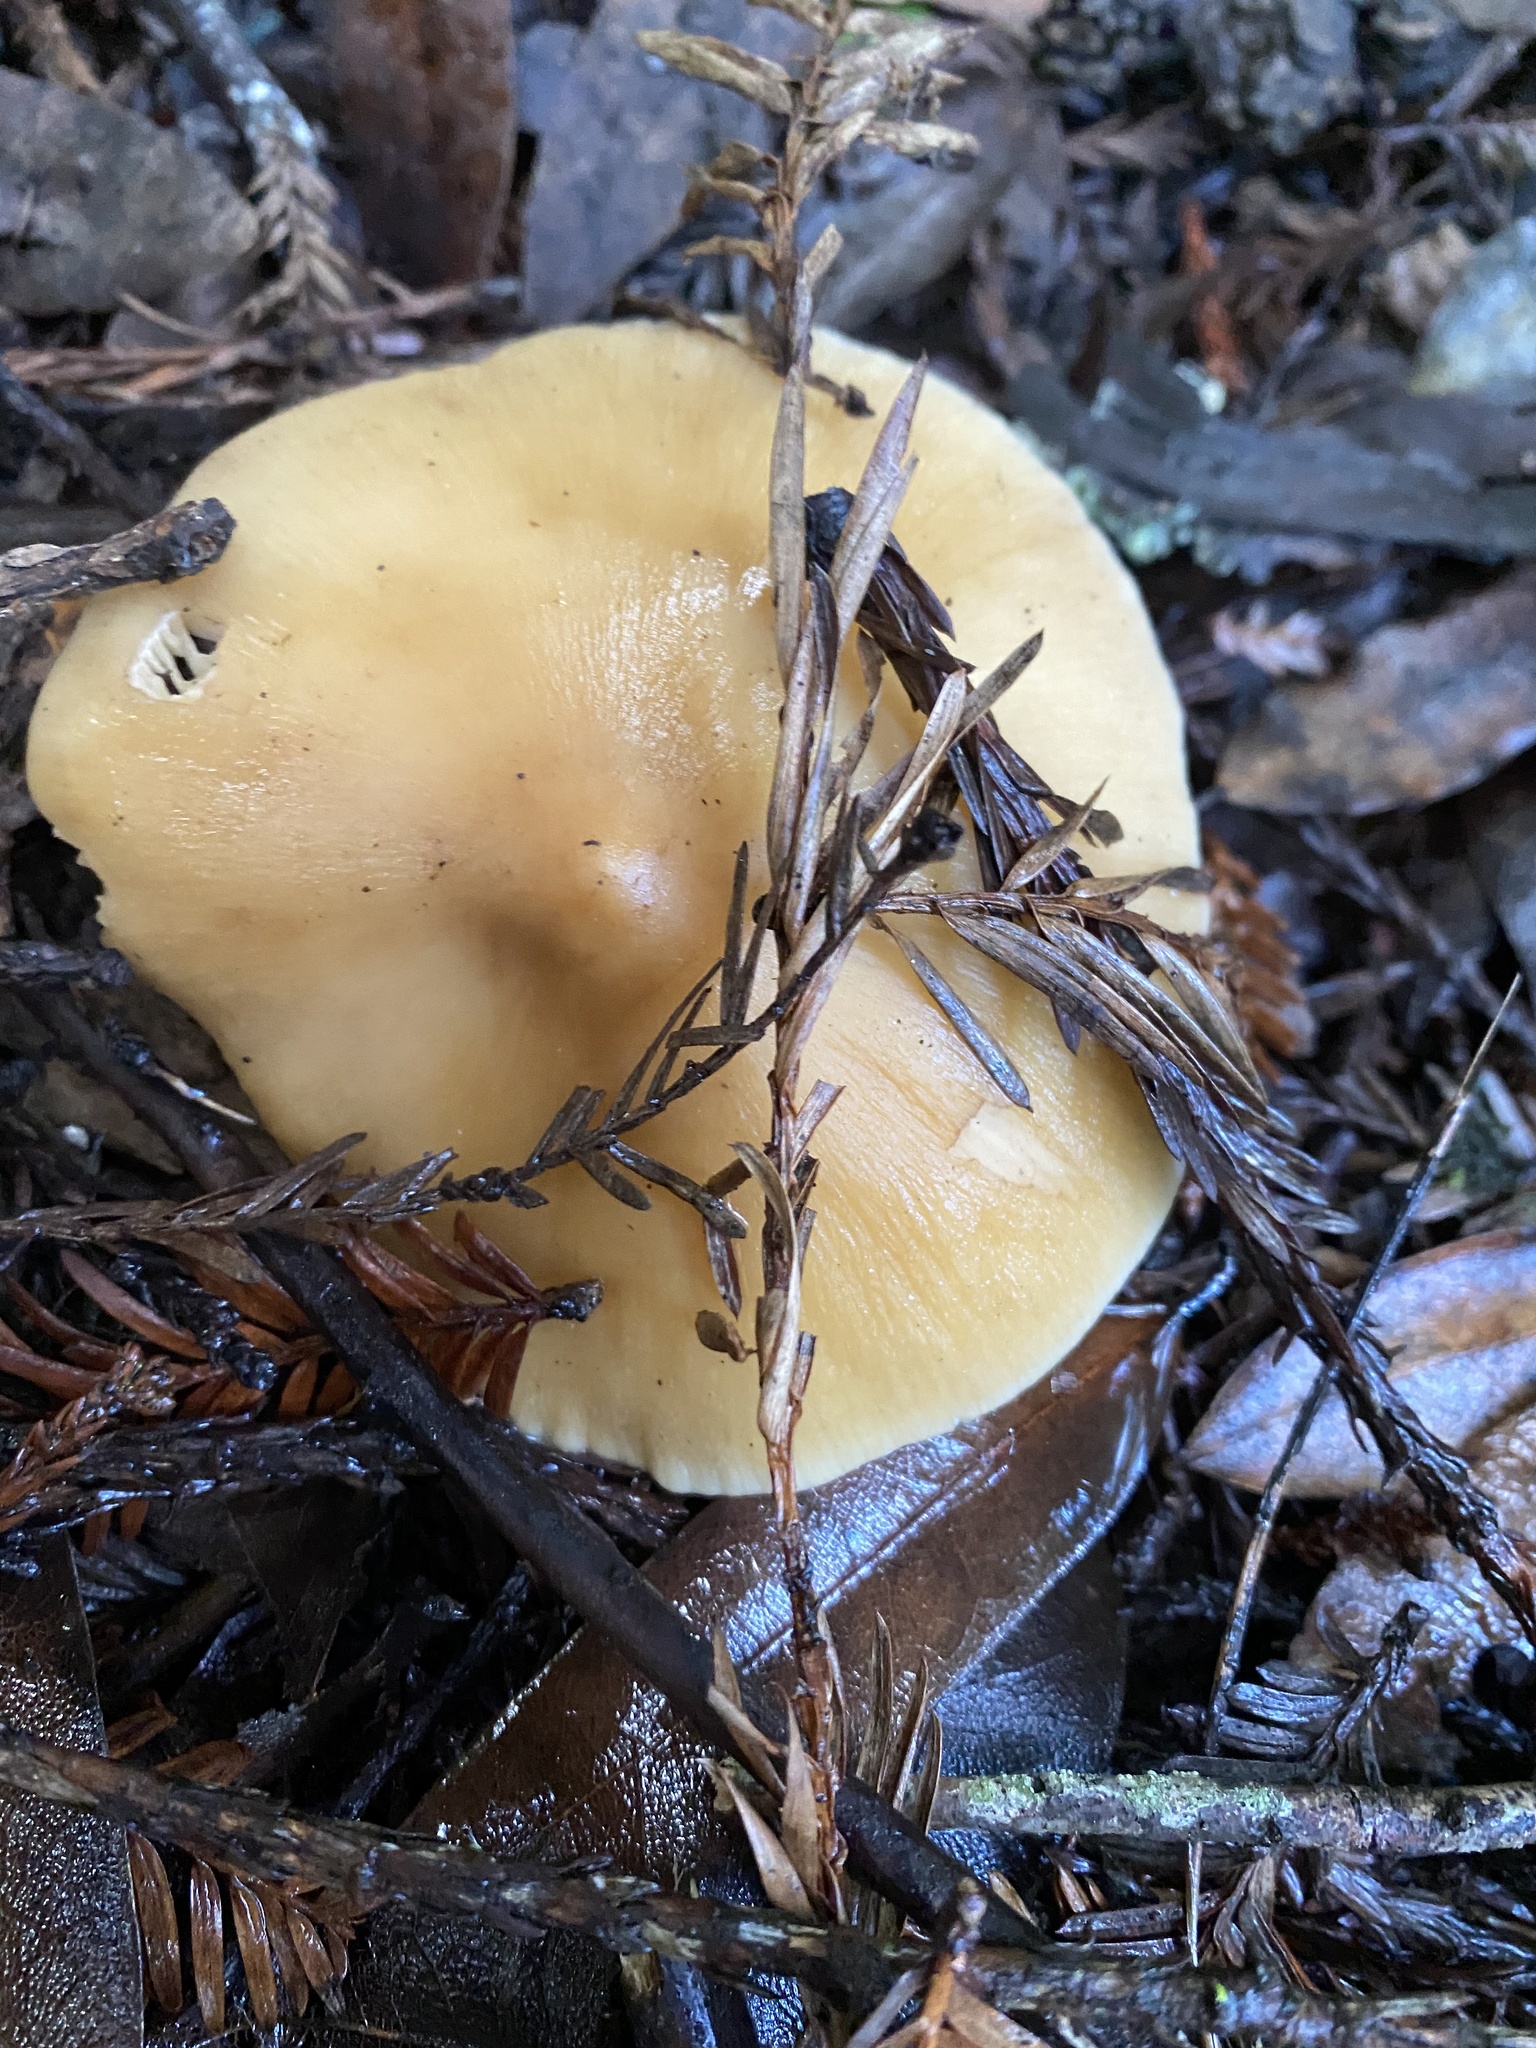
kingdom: Fungi
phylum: Basidiomycota
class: Agaricomycetes
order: Agaricales
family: Tricholomataceae
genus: Caulorhiza
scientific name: Caulorhiza umbonata
